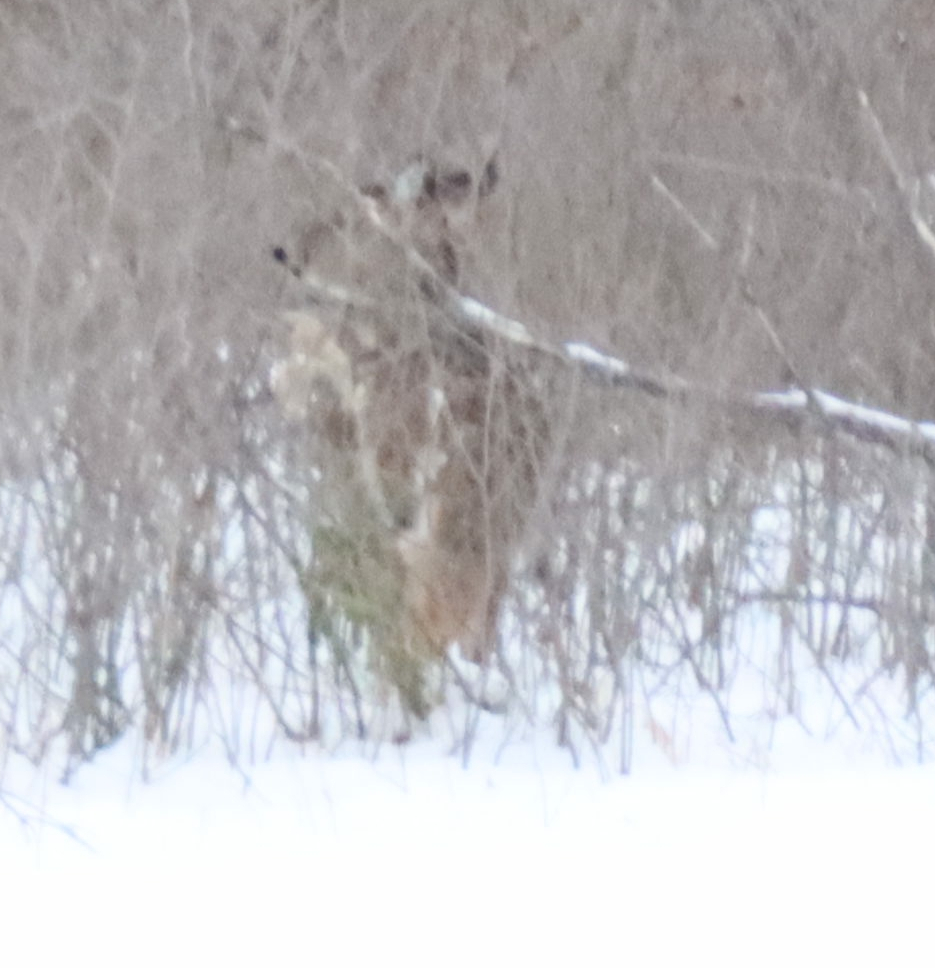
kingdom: Animalia
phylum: Chordata
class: Mammalia
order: Artiodactyla
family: Cervidae
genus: Odocoileus
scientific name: Odocoileus virginianus
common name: White-tailed deer
